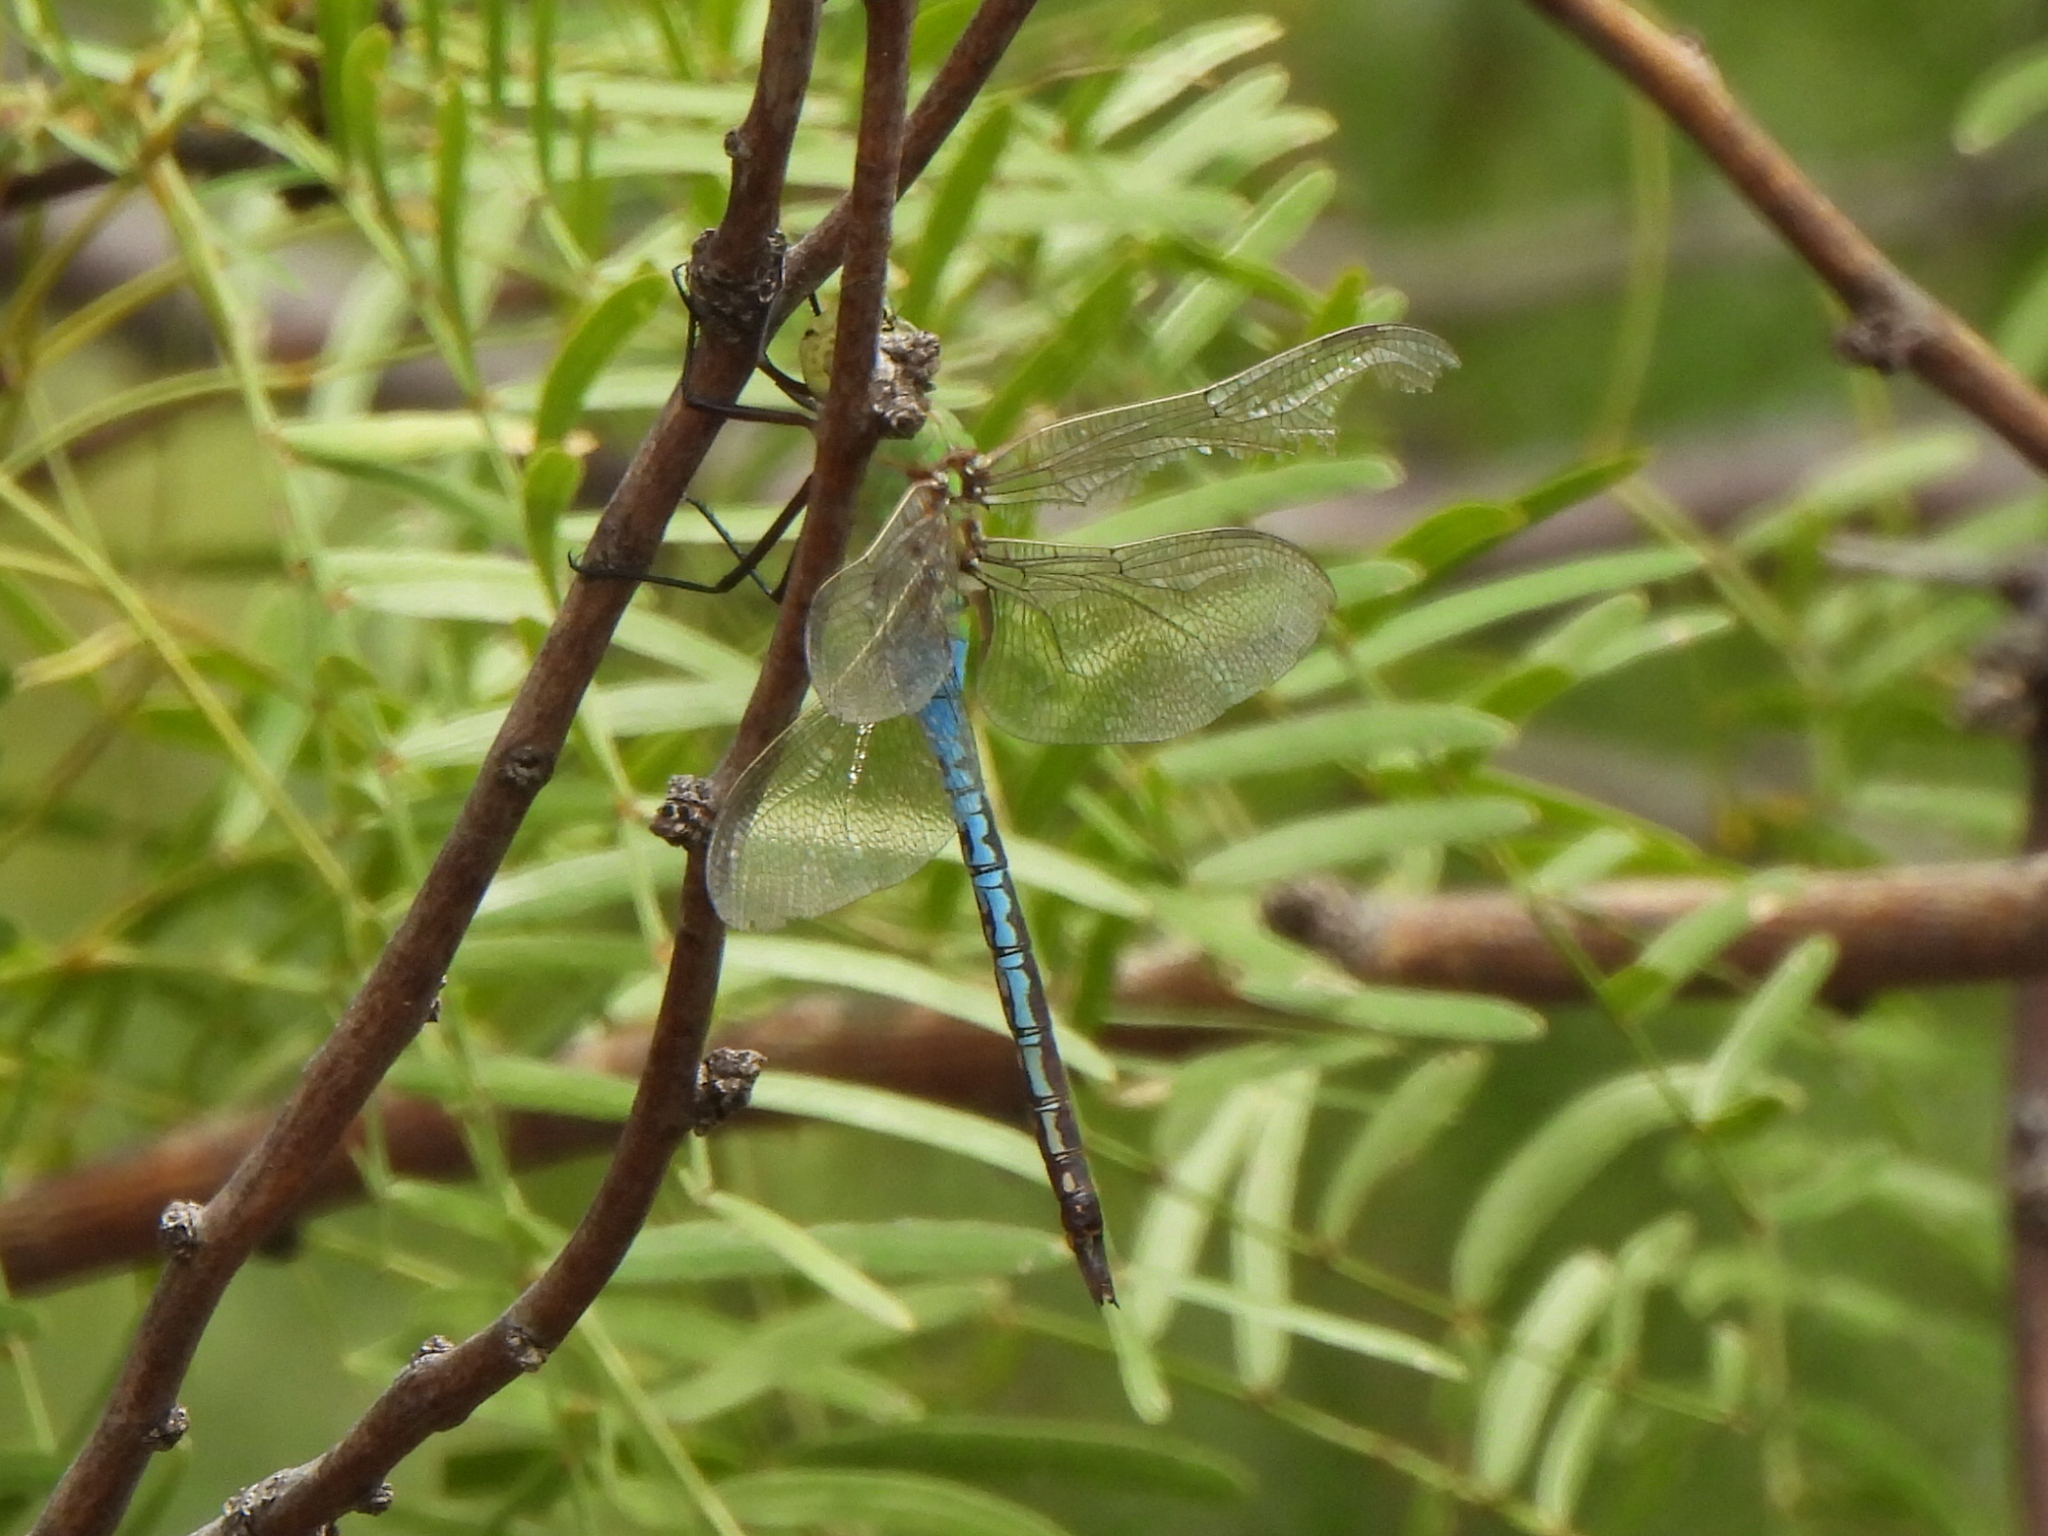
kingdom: Animalia
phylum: Arthropoda
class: Insecta
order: Odonata
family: Aeshnidae
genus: Anax
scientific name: Anax junius
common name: Common green darner
